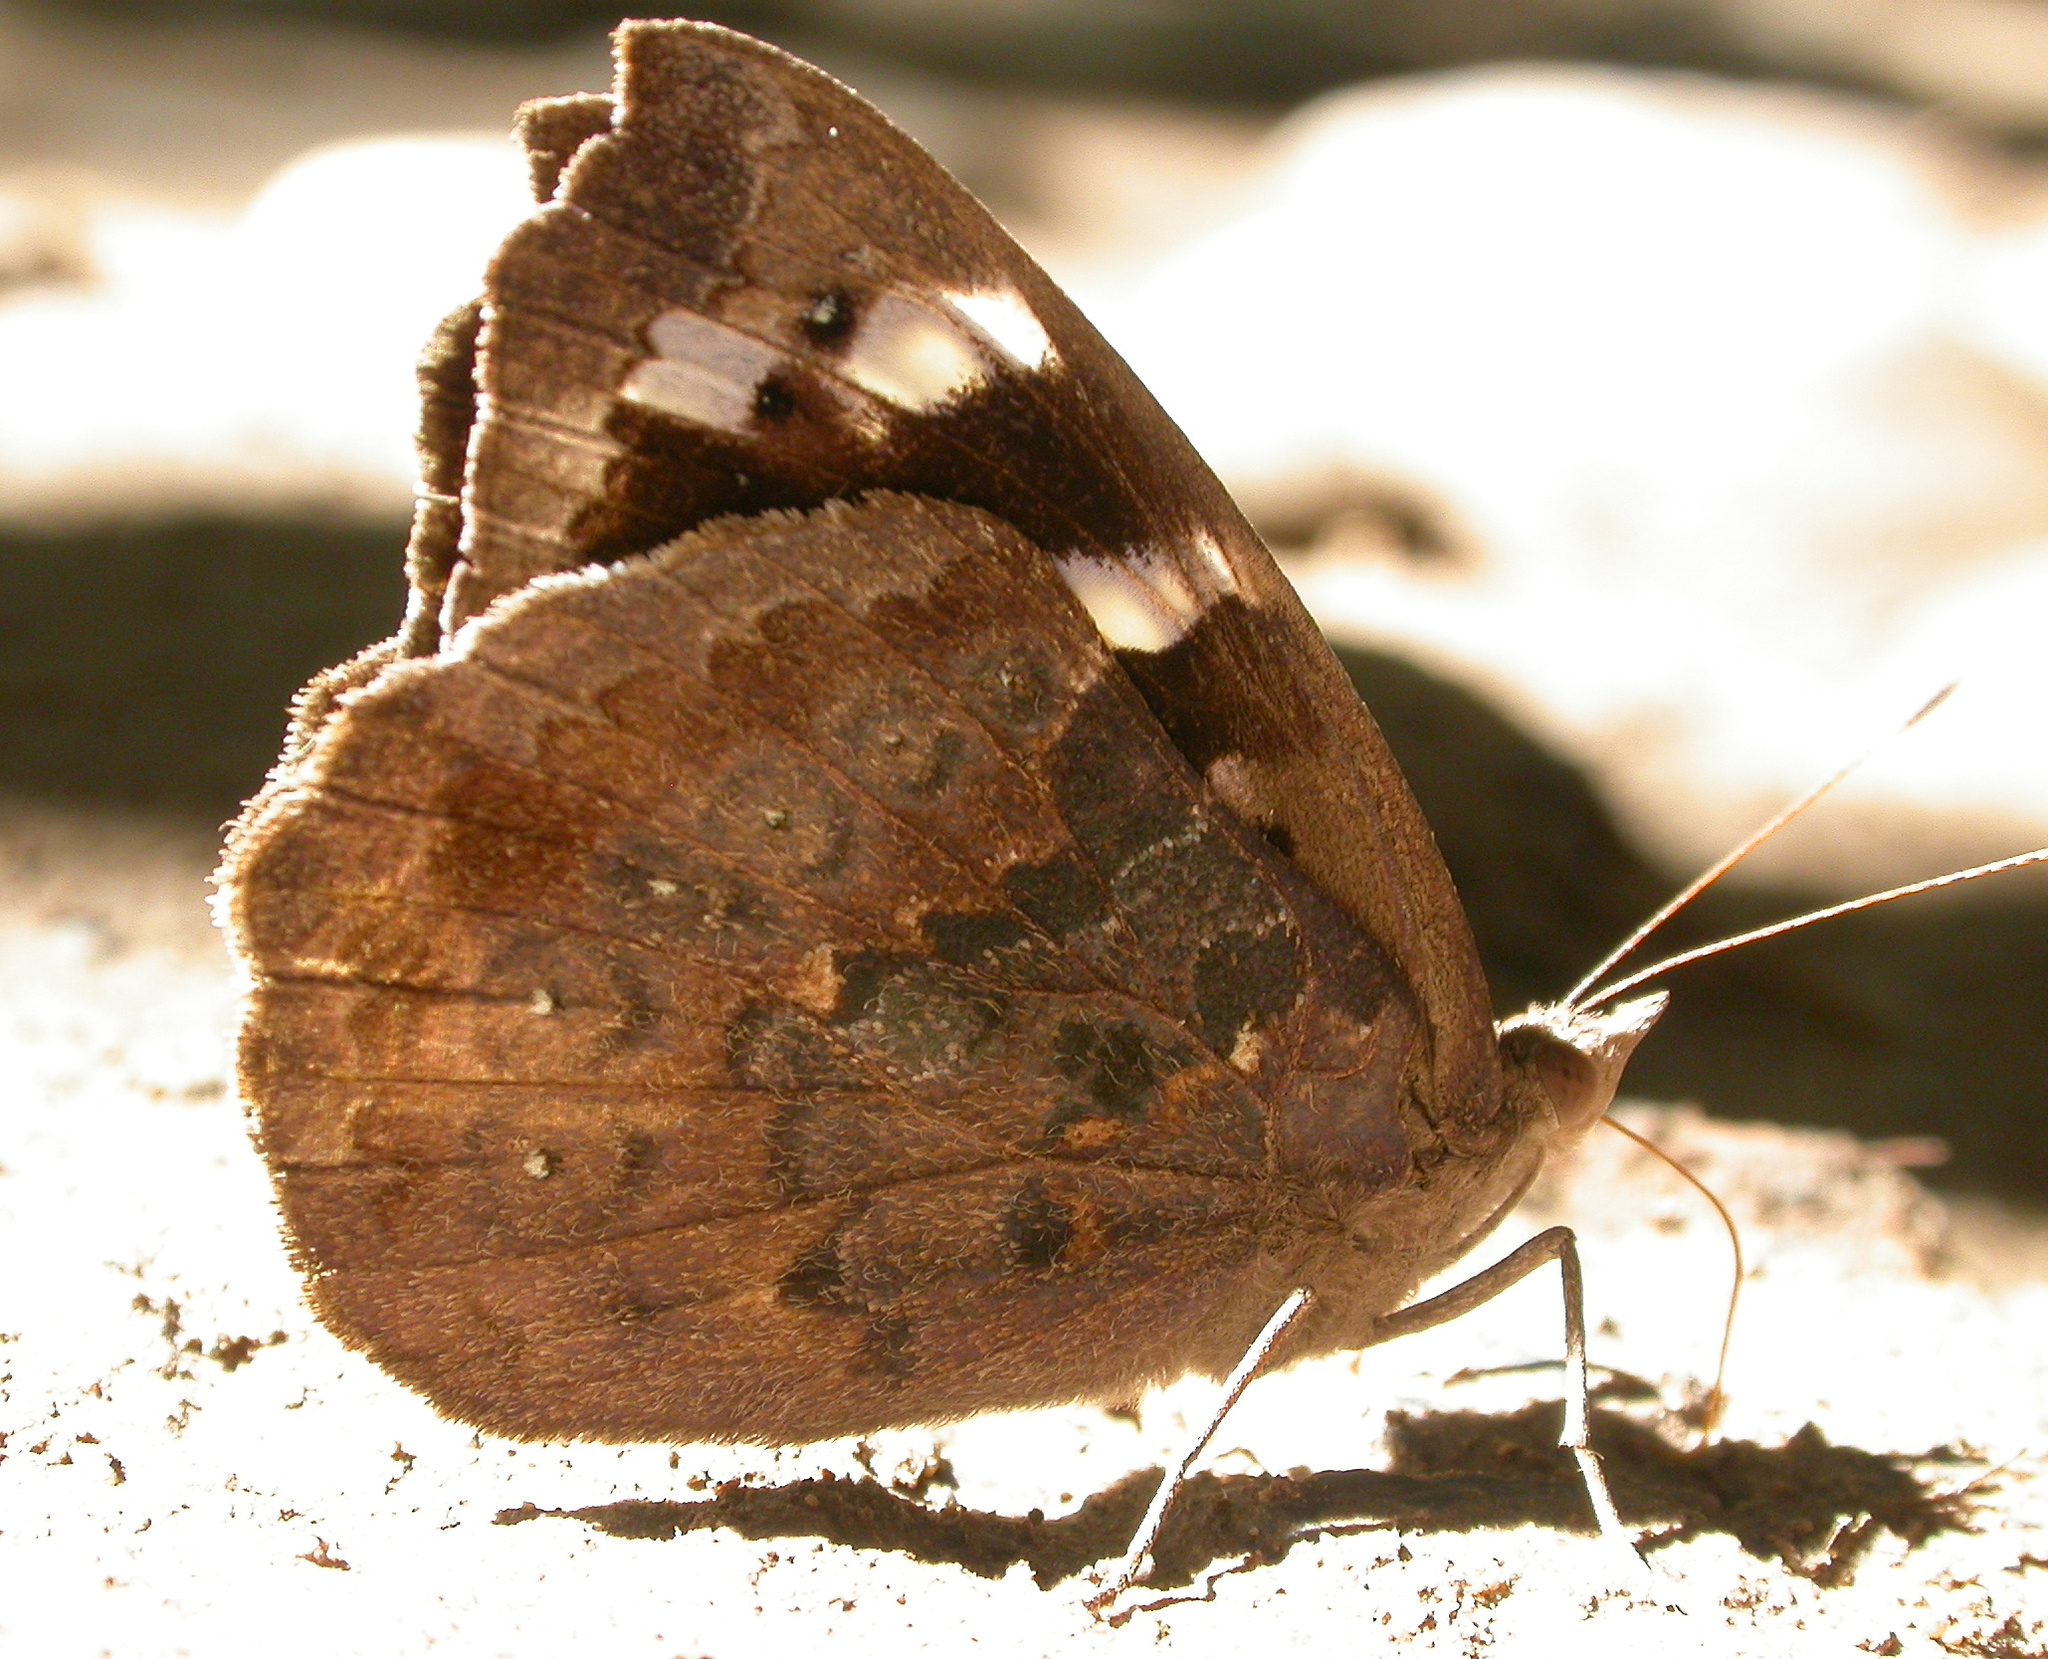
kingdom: Animalia
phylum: Arthropoda
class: Insecta
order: Lepidoptera
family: Nymphalidae
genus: Eunica
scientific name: Eunica tatila
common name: Florida purplewing
